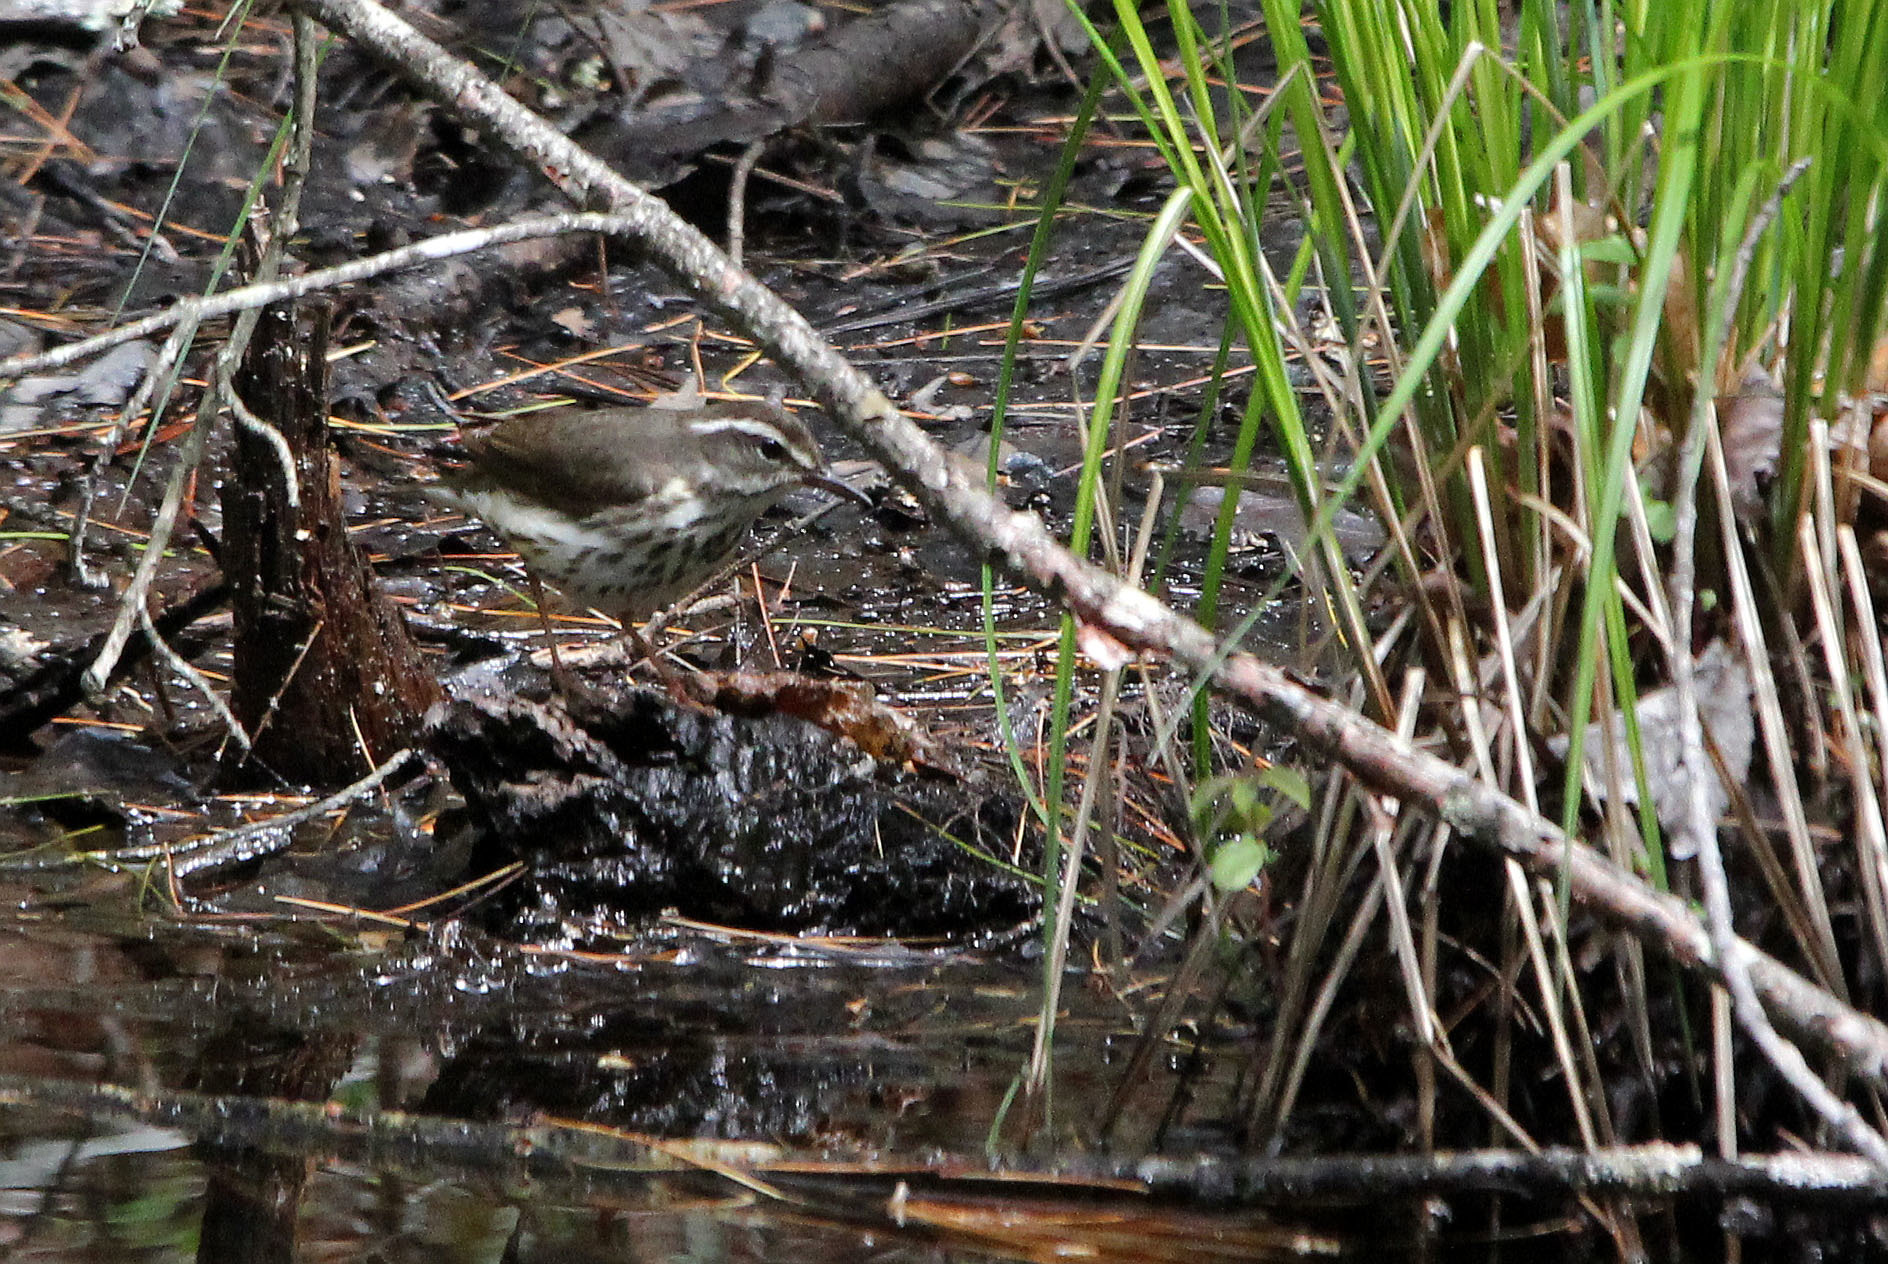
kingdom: Animalia
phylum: Chordata
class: Aves
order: Passeriformes
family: Parulidae
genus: Parkesia
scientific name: Parkesia motacilla
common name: Louisiana waterthrush
